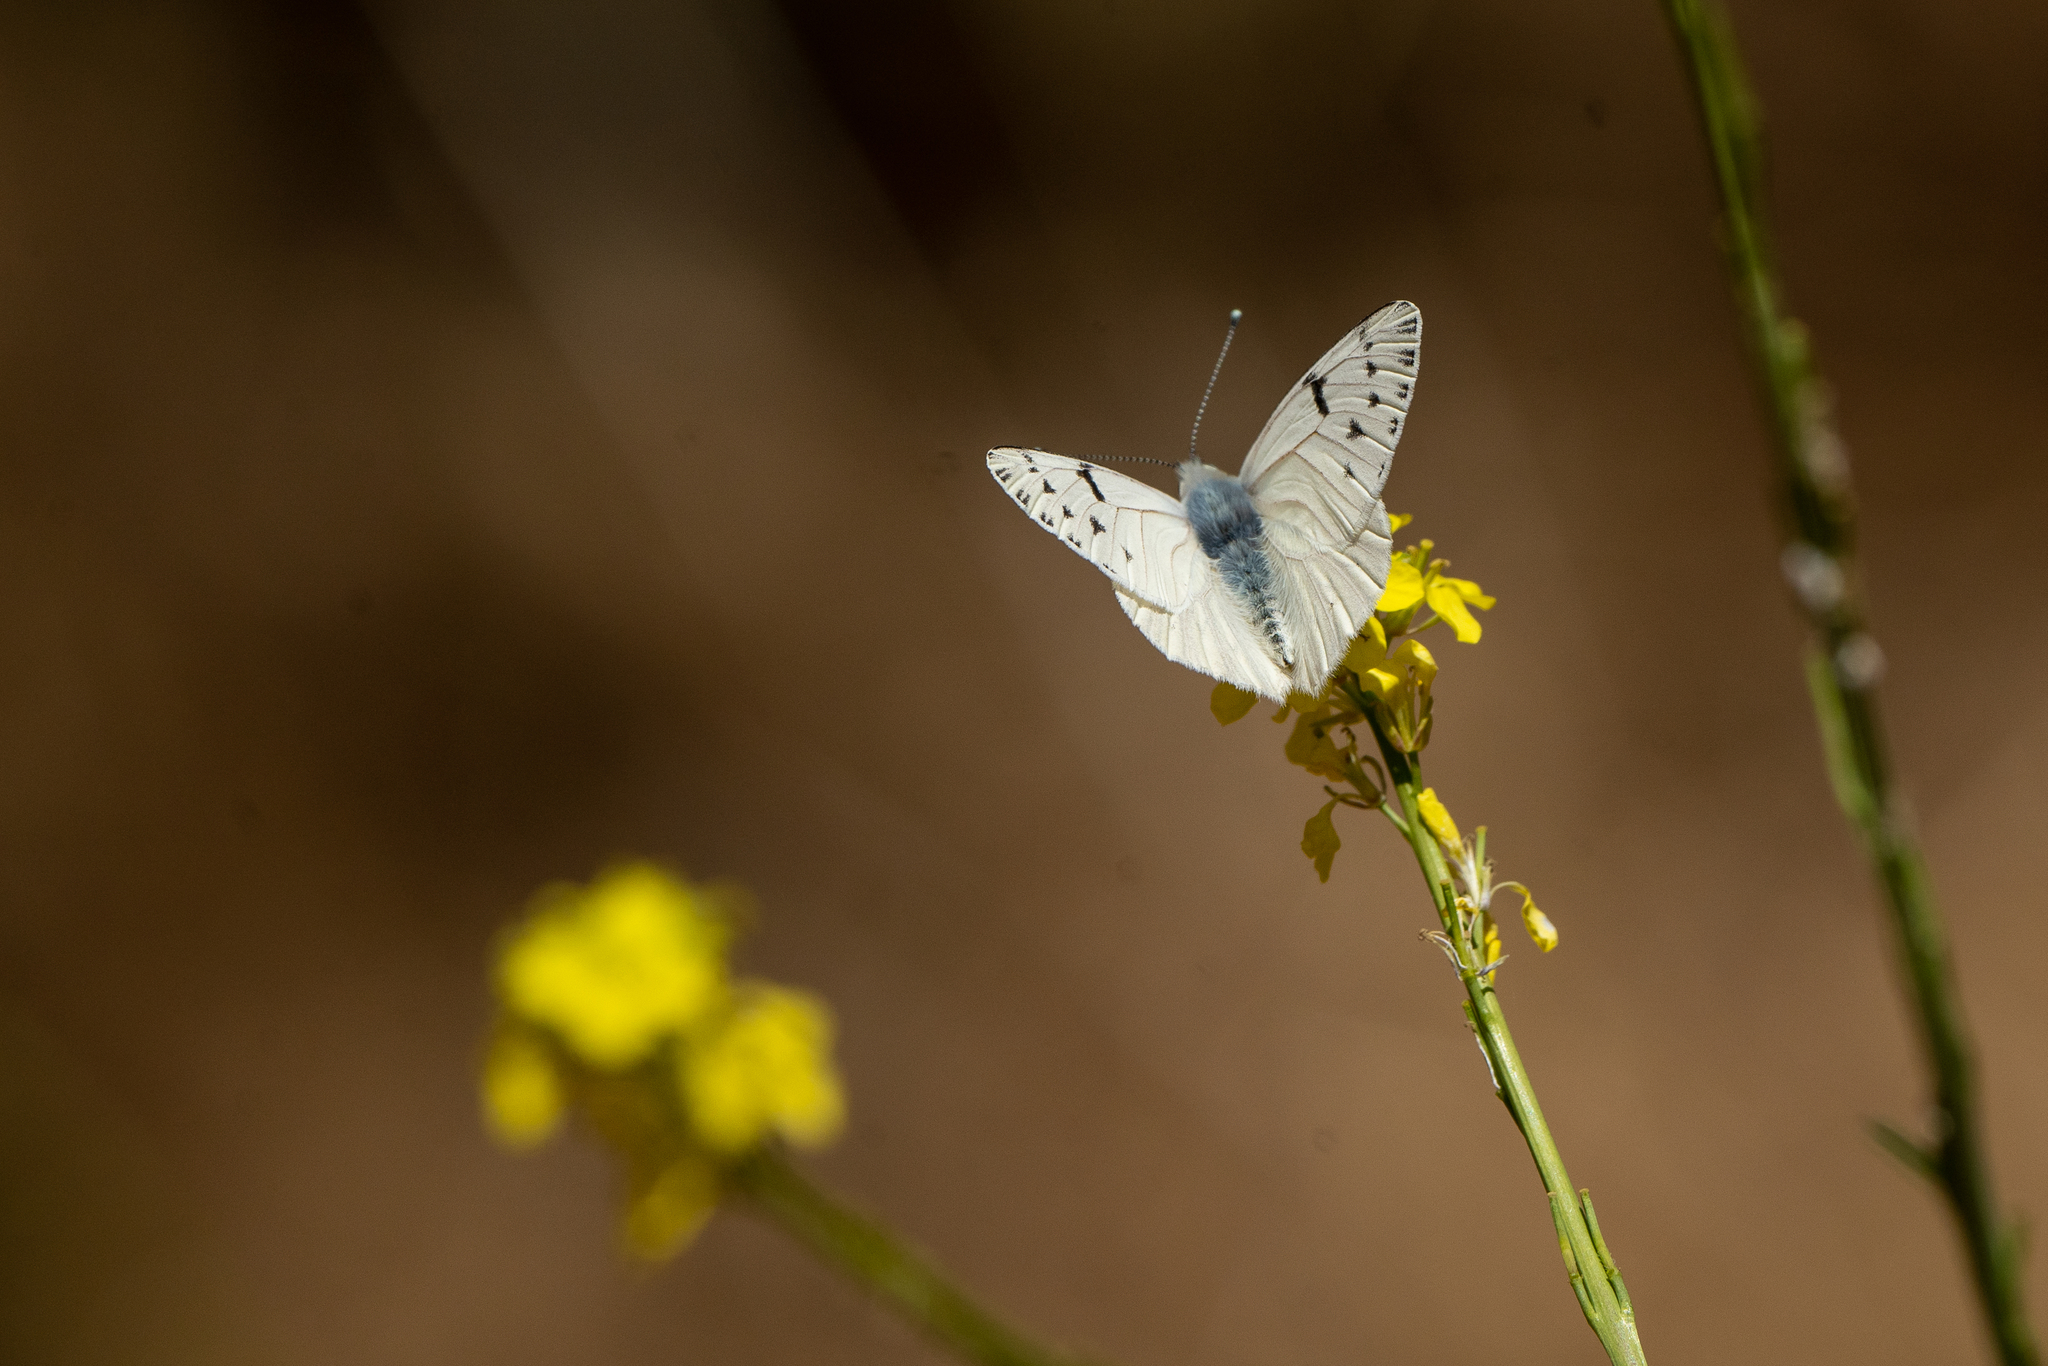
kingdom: Animalia
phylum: Arthropoda
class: Insecta
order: Lepidoptera
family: Pieridae
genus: Tatochila
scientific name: Tatochila mercedis
